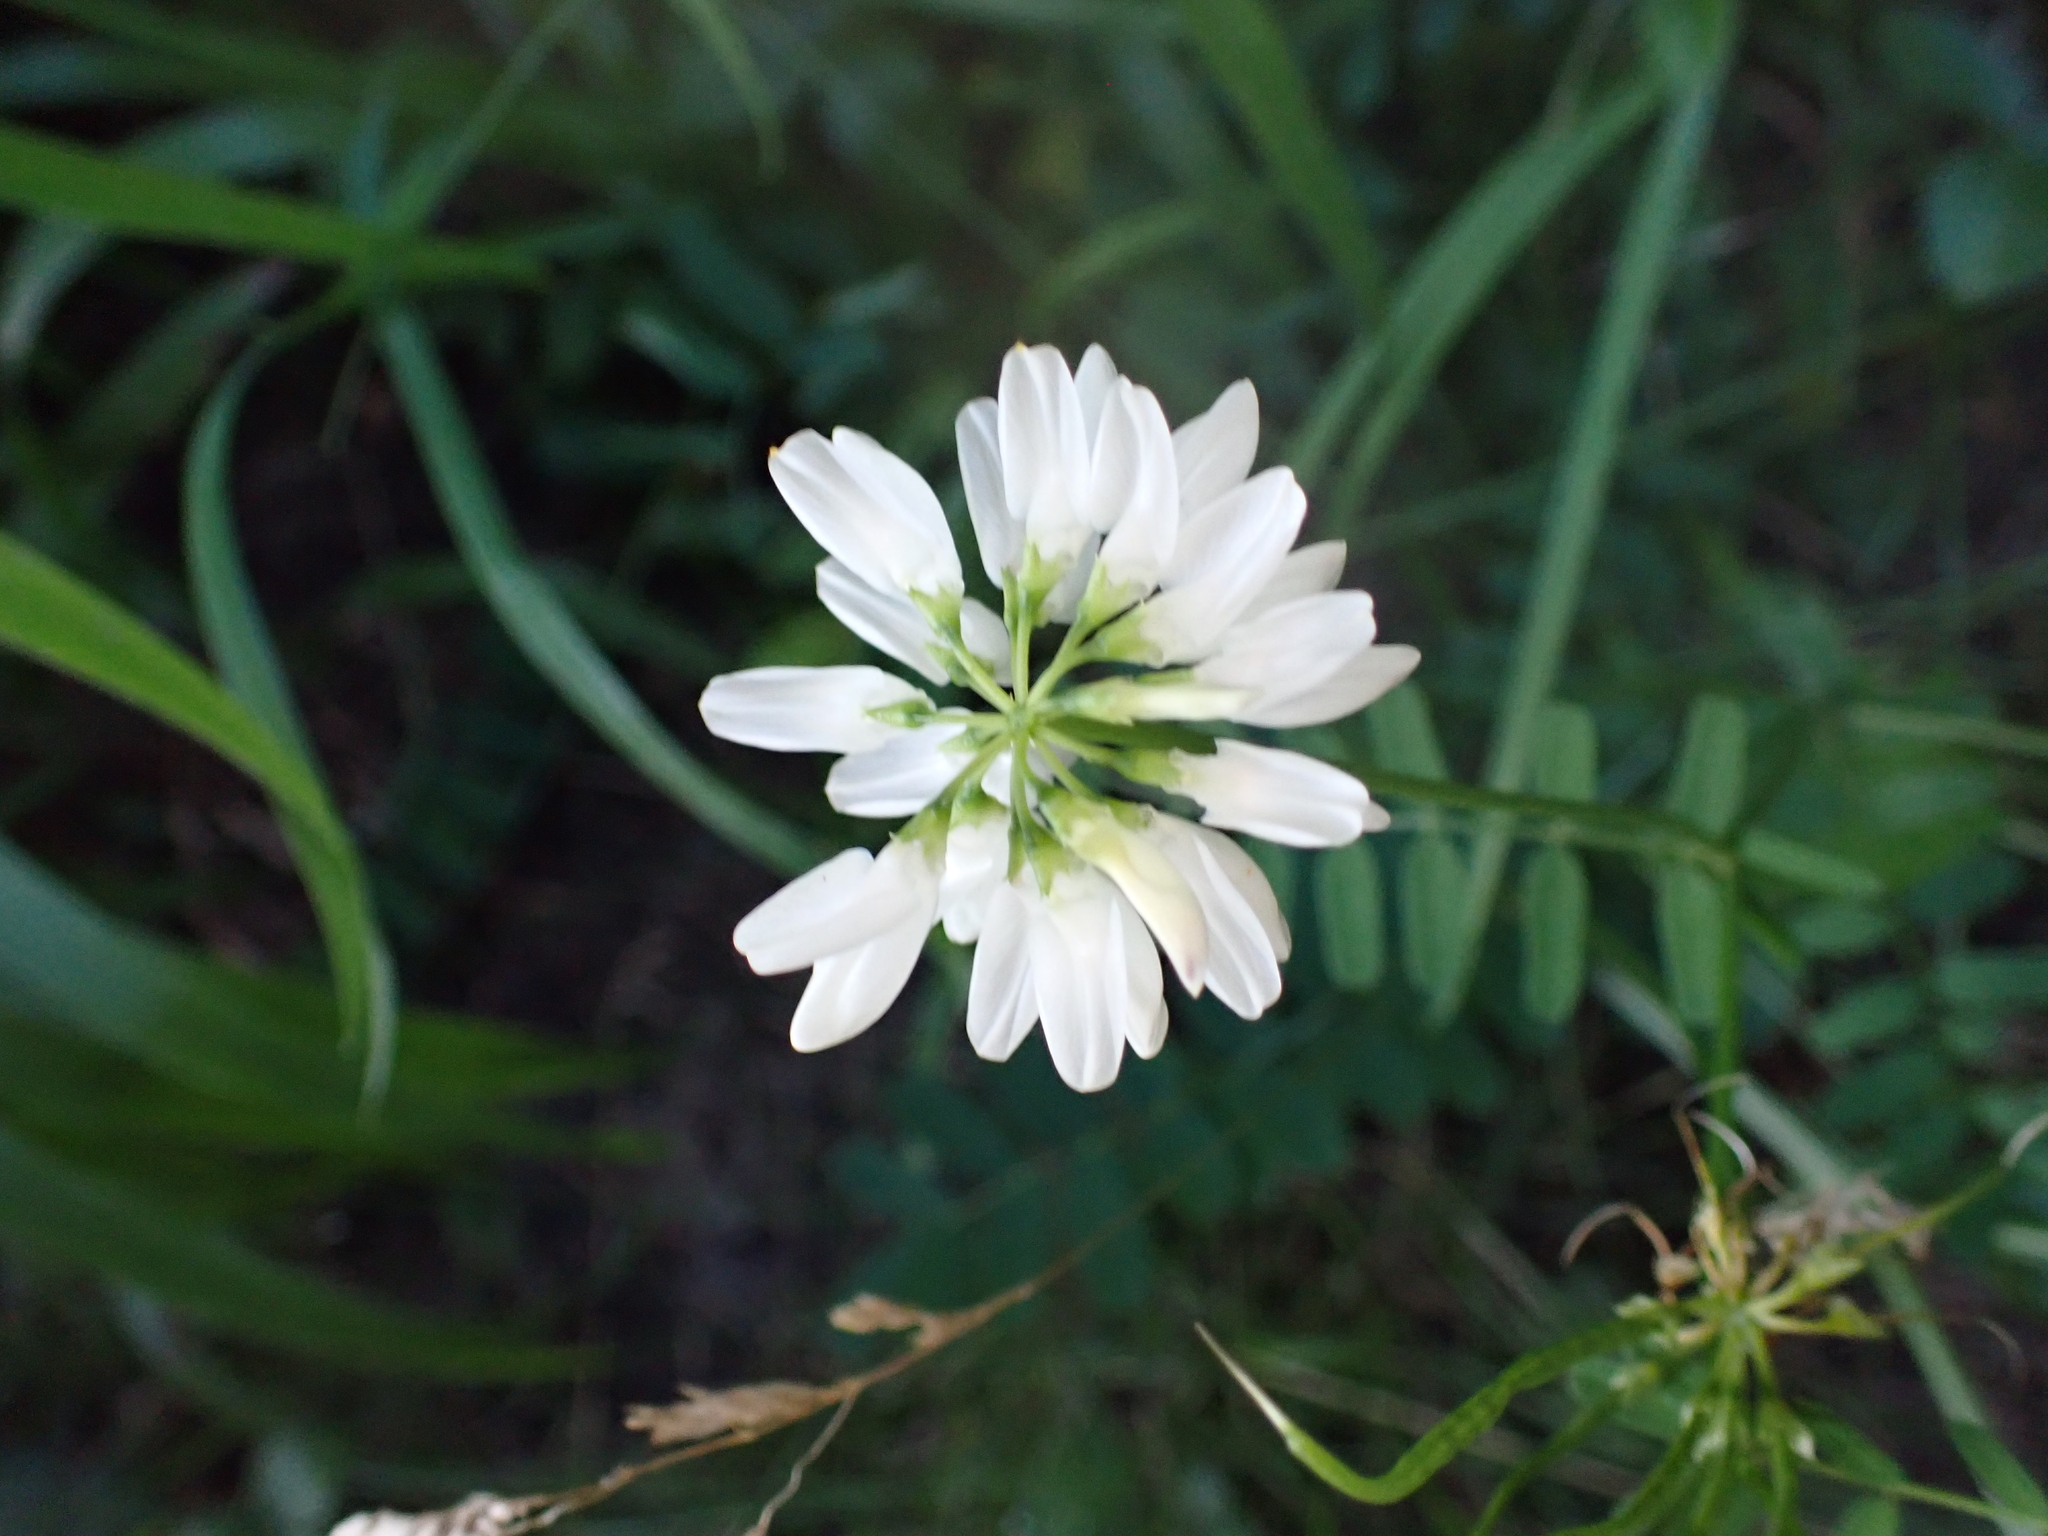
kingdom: Plantae
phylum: Tracheophyta
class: Magnoliopsida
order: Fabales
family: Fabaceae
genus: Coronilla
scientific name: Coronilla varia
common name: Crownvetch
